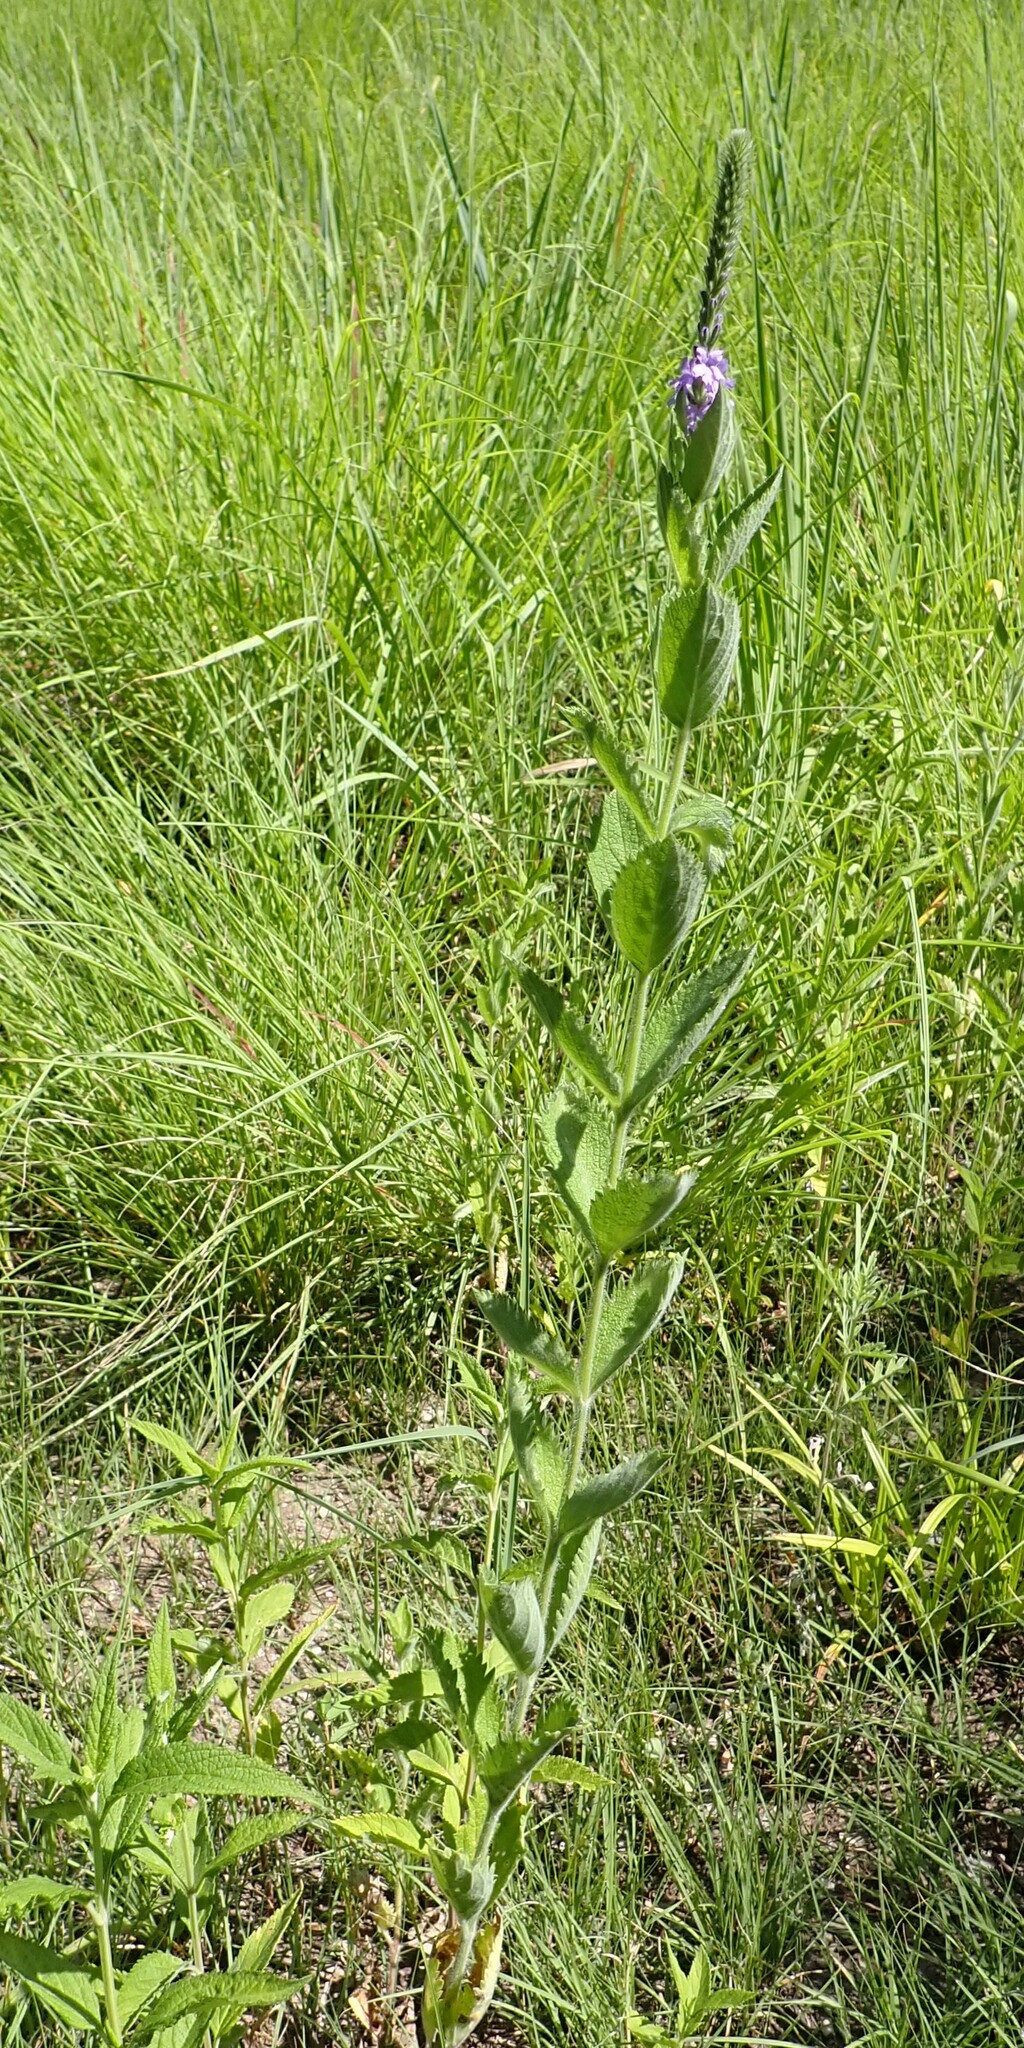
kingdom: Plantae
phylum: Tracheophyta
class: Magnoliopsida
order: Lamiales
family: Verbenaceae
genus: Verbena
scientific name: Verbena stricta
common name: Hoary vervain
